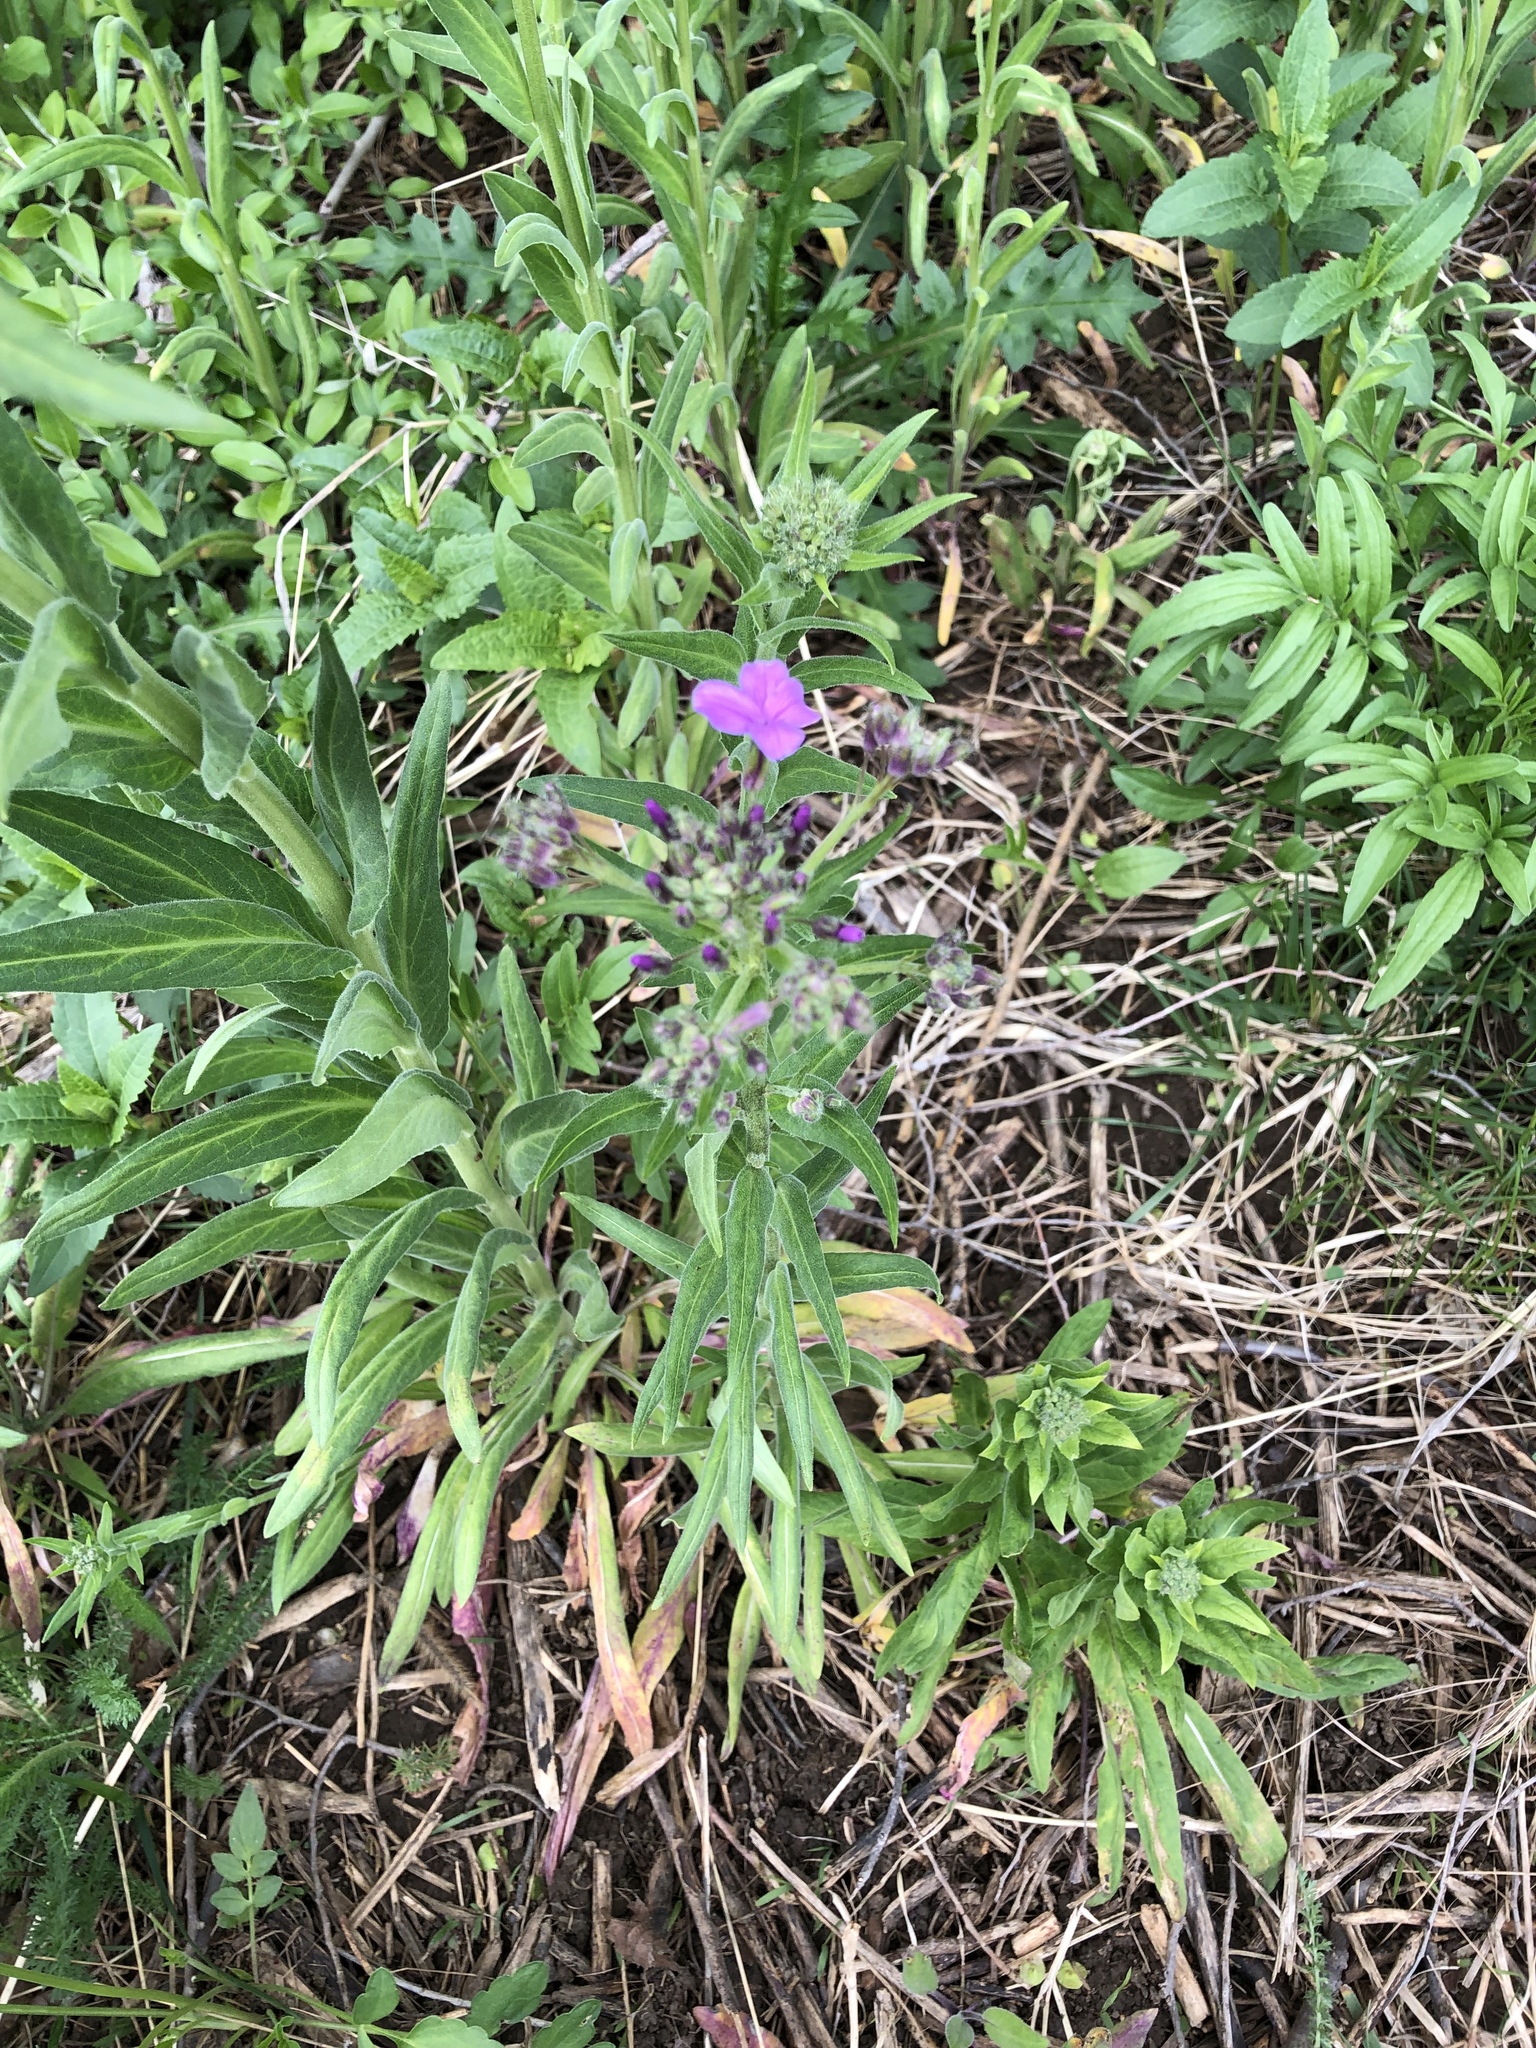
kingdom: Plantae
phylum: Tracheophyta
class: Magnoliopsida
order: Brassicales
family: Brassicaceae
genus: Hesperis
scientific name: Hesperis matronalis
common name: Dame's-violet
